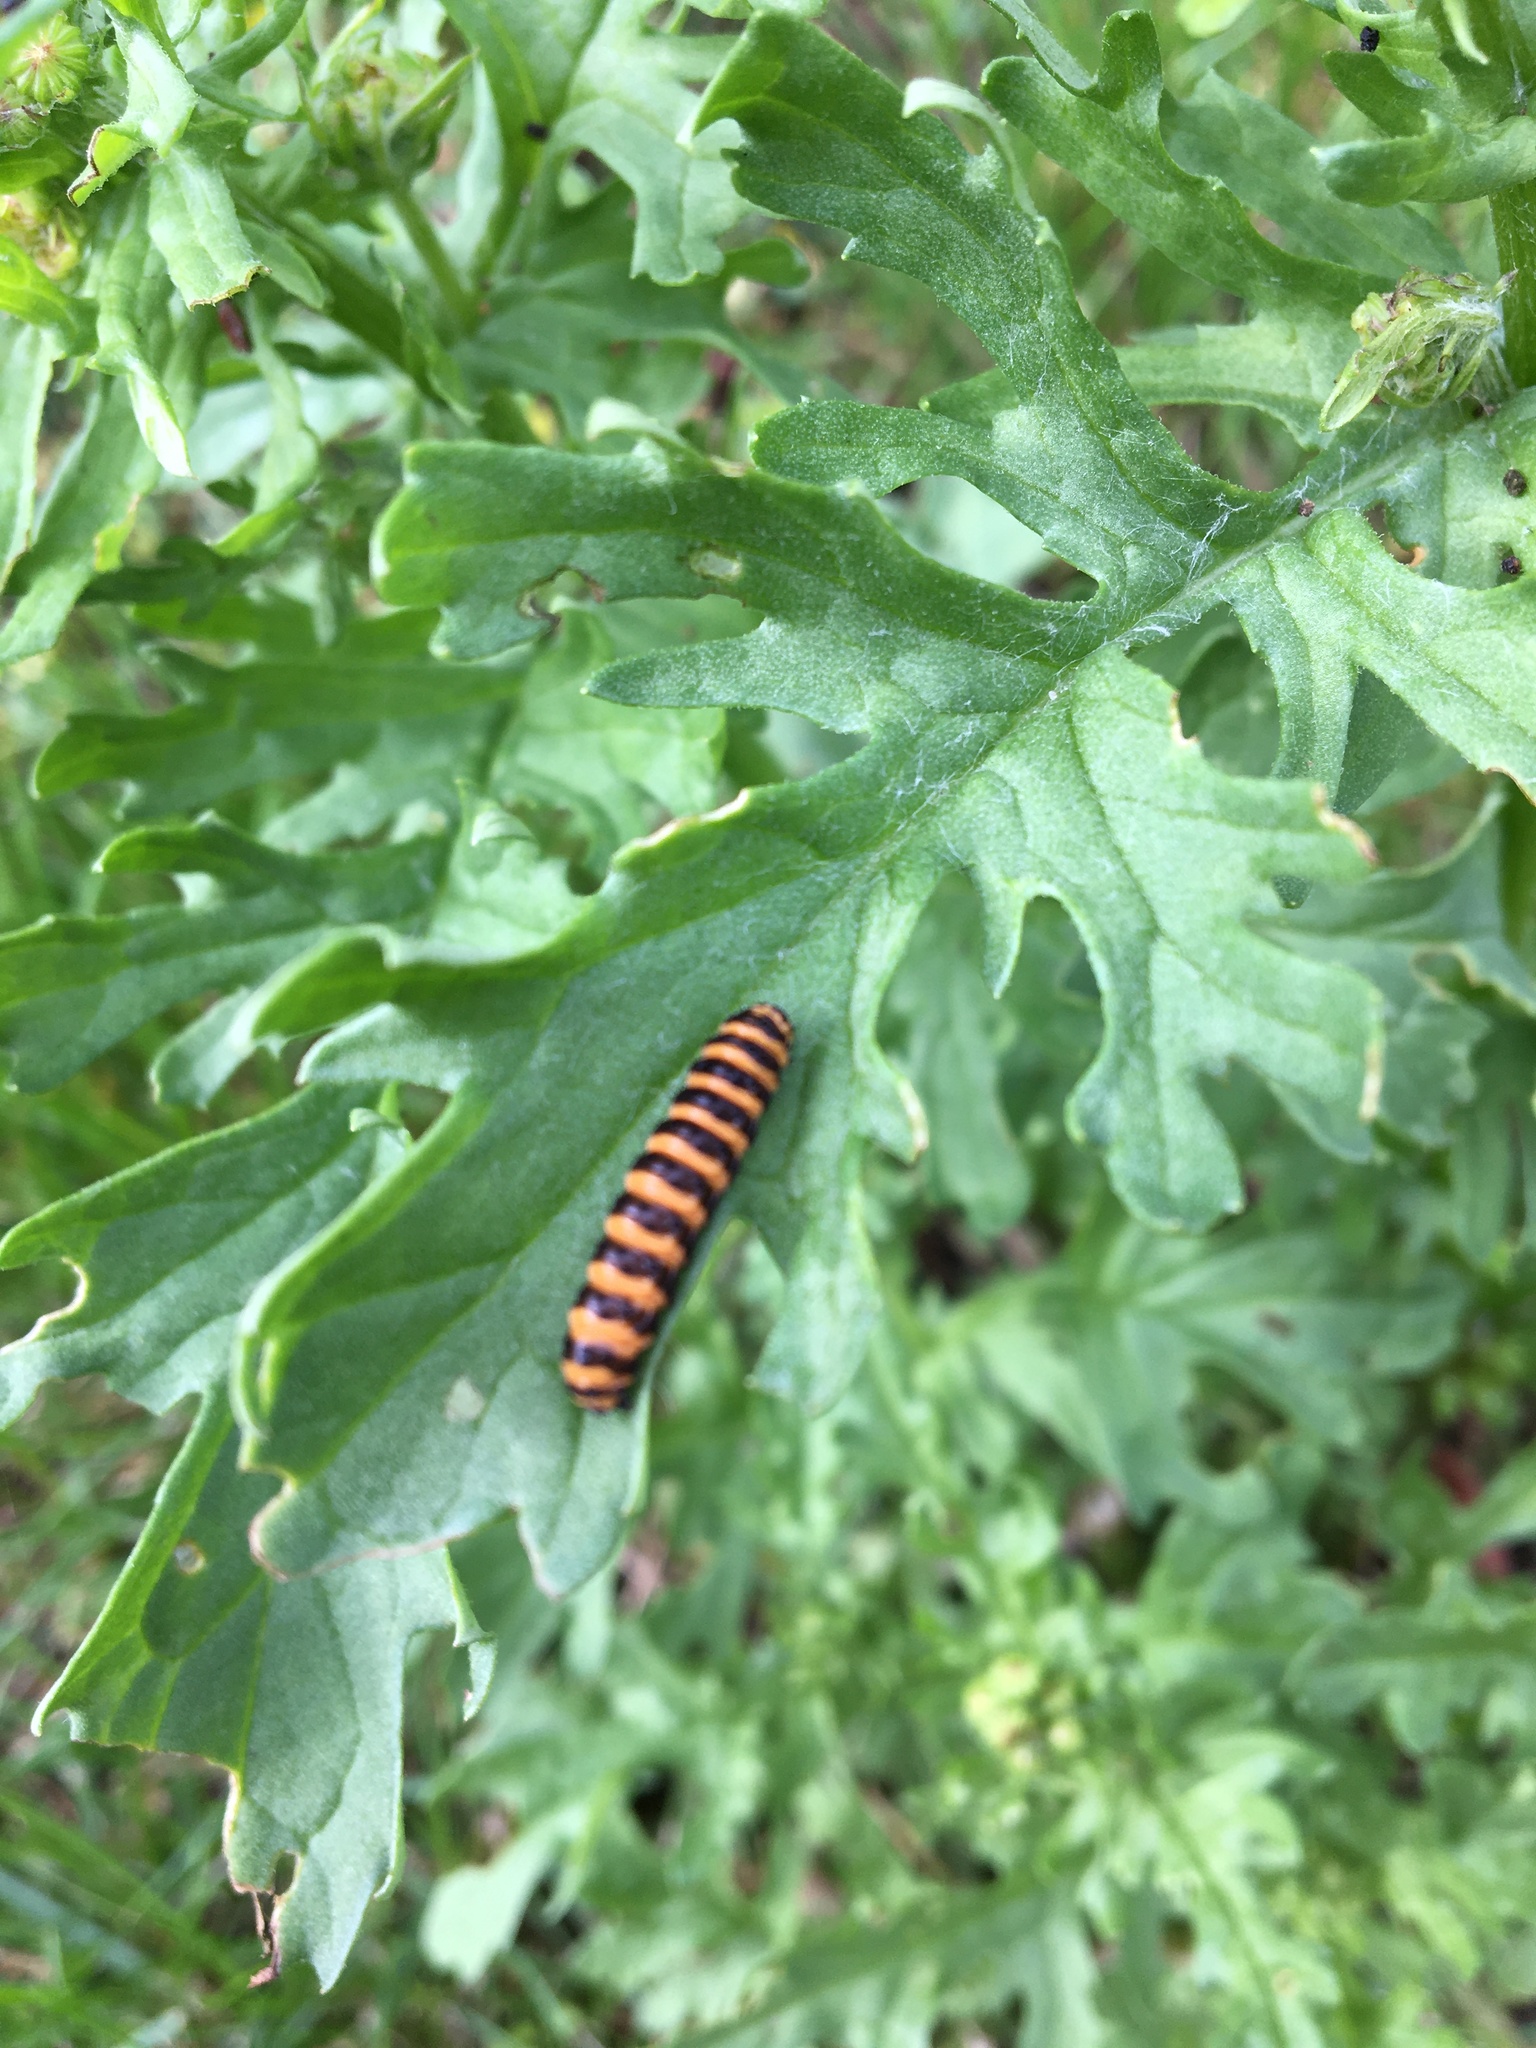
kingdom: Animalia
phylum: Arthropoda
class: Insecta
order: Lepidoptera
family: Erebidae
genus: Tyria
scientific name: Tyria jacobaeae
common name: Cinnabar
